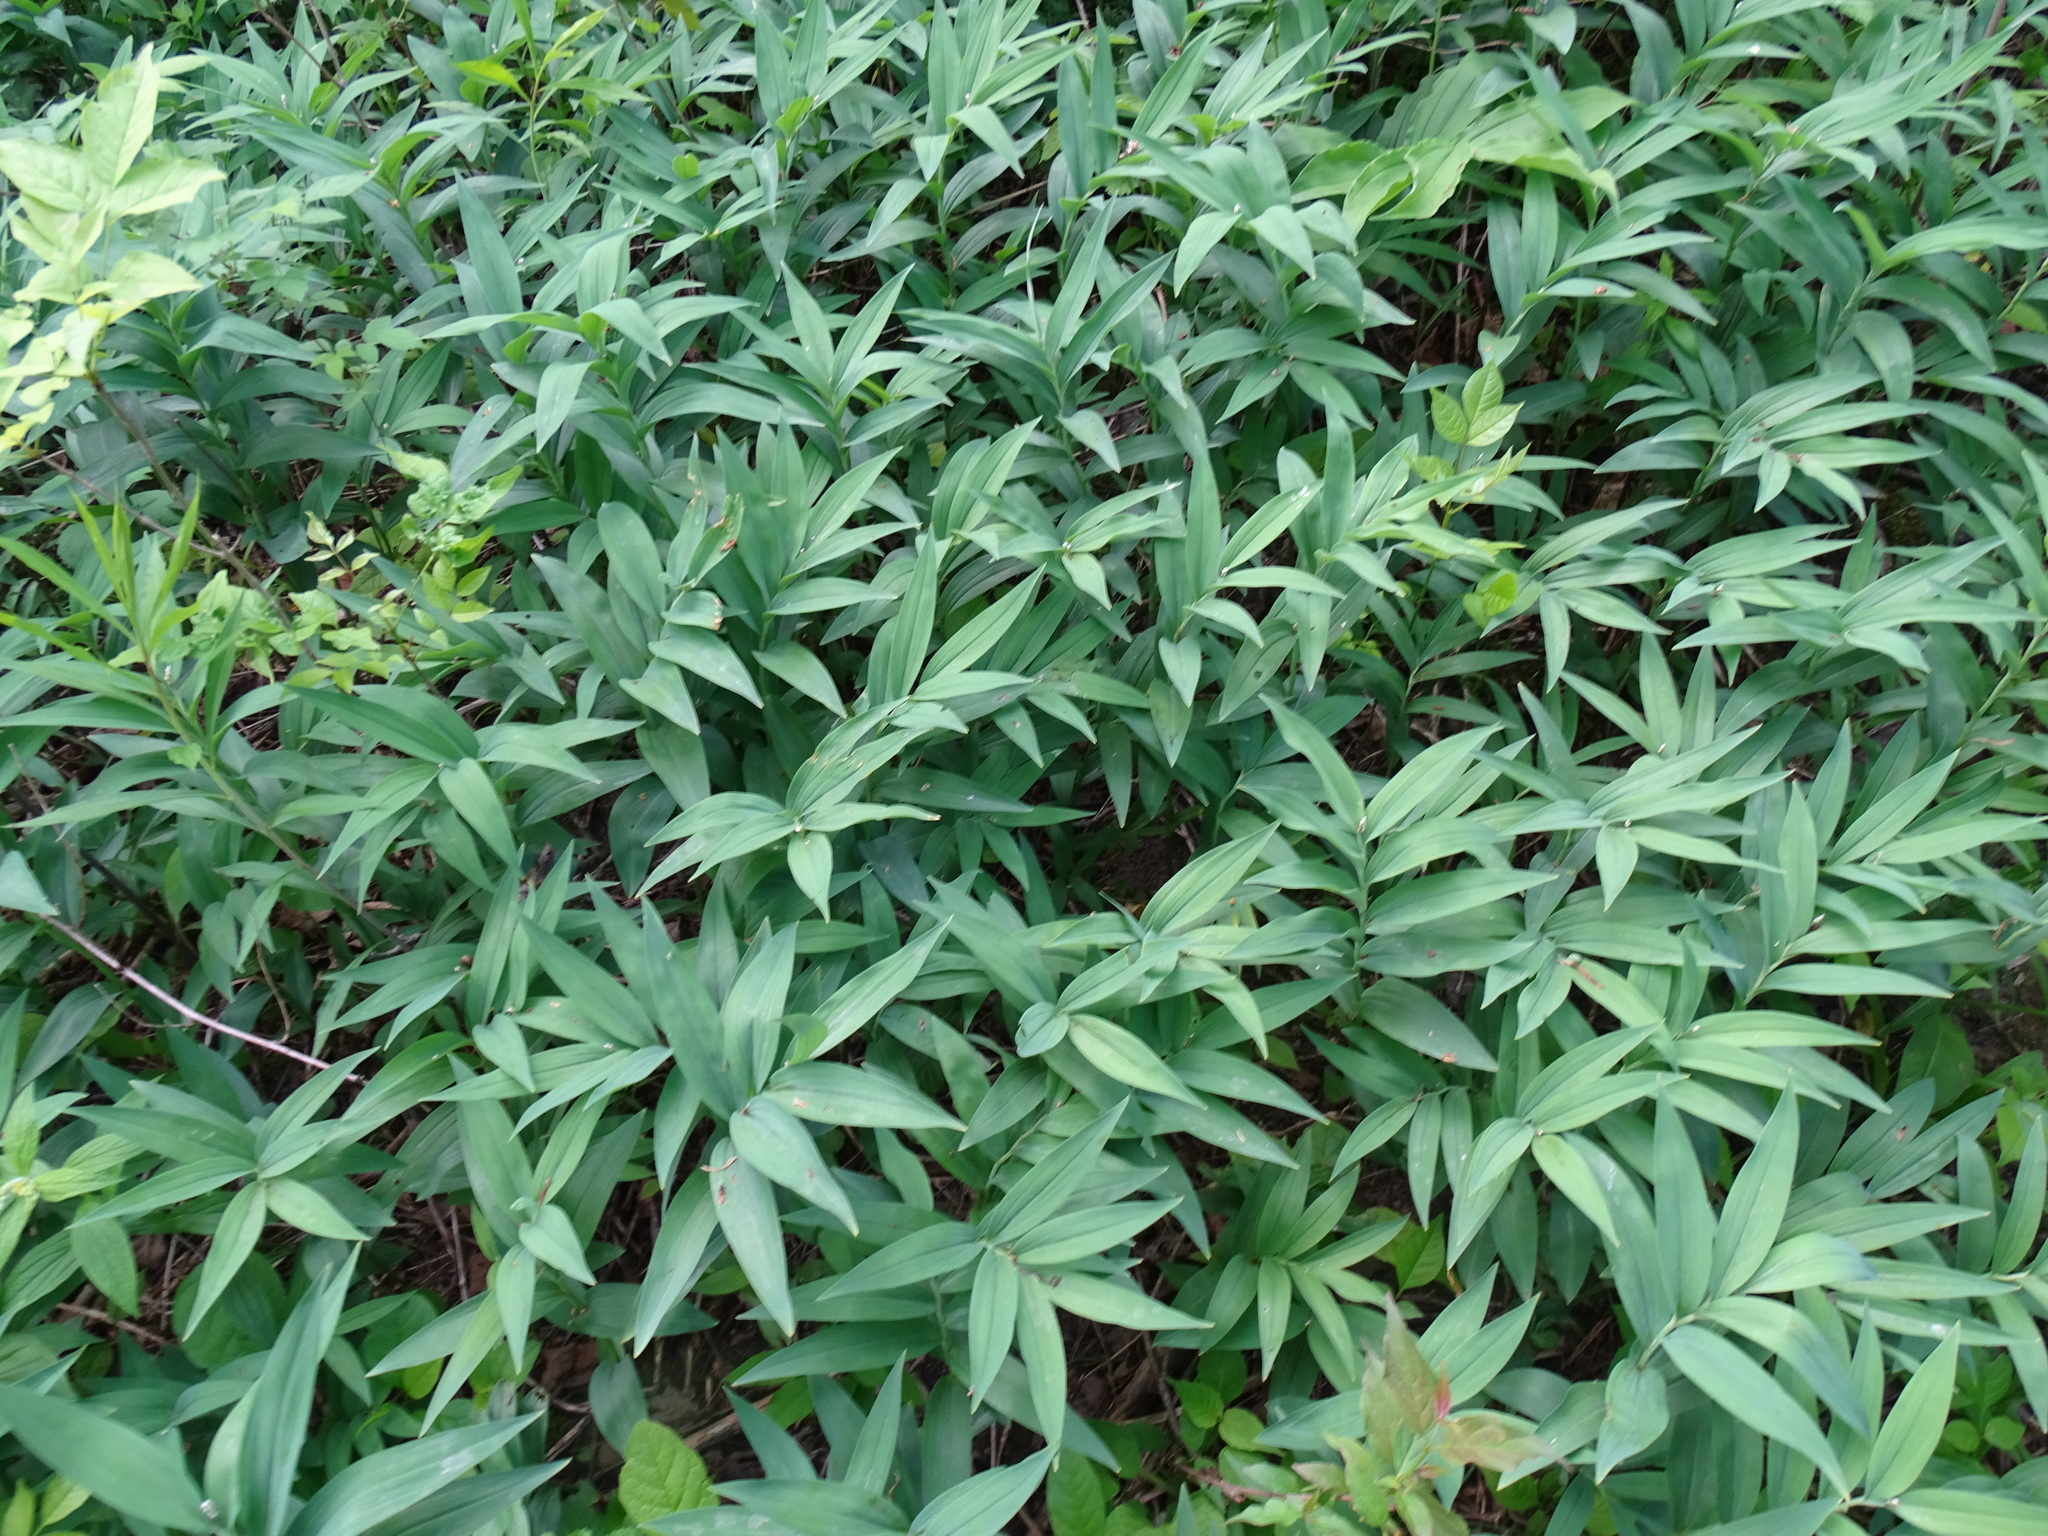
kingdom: Plantae
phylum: Tracheophyta
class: Liliopsida
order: Asparagales
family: Asparagaceae
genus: Maianthemum
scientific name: Maianthemum stellatum
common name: Little false solomon's seal
